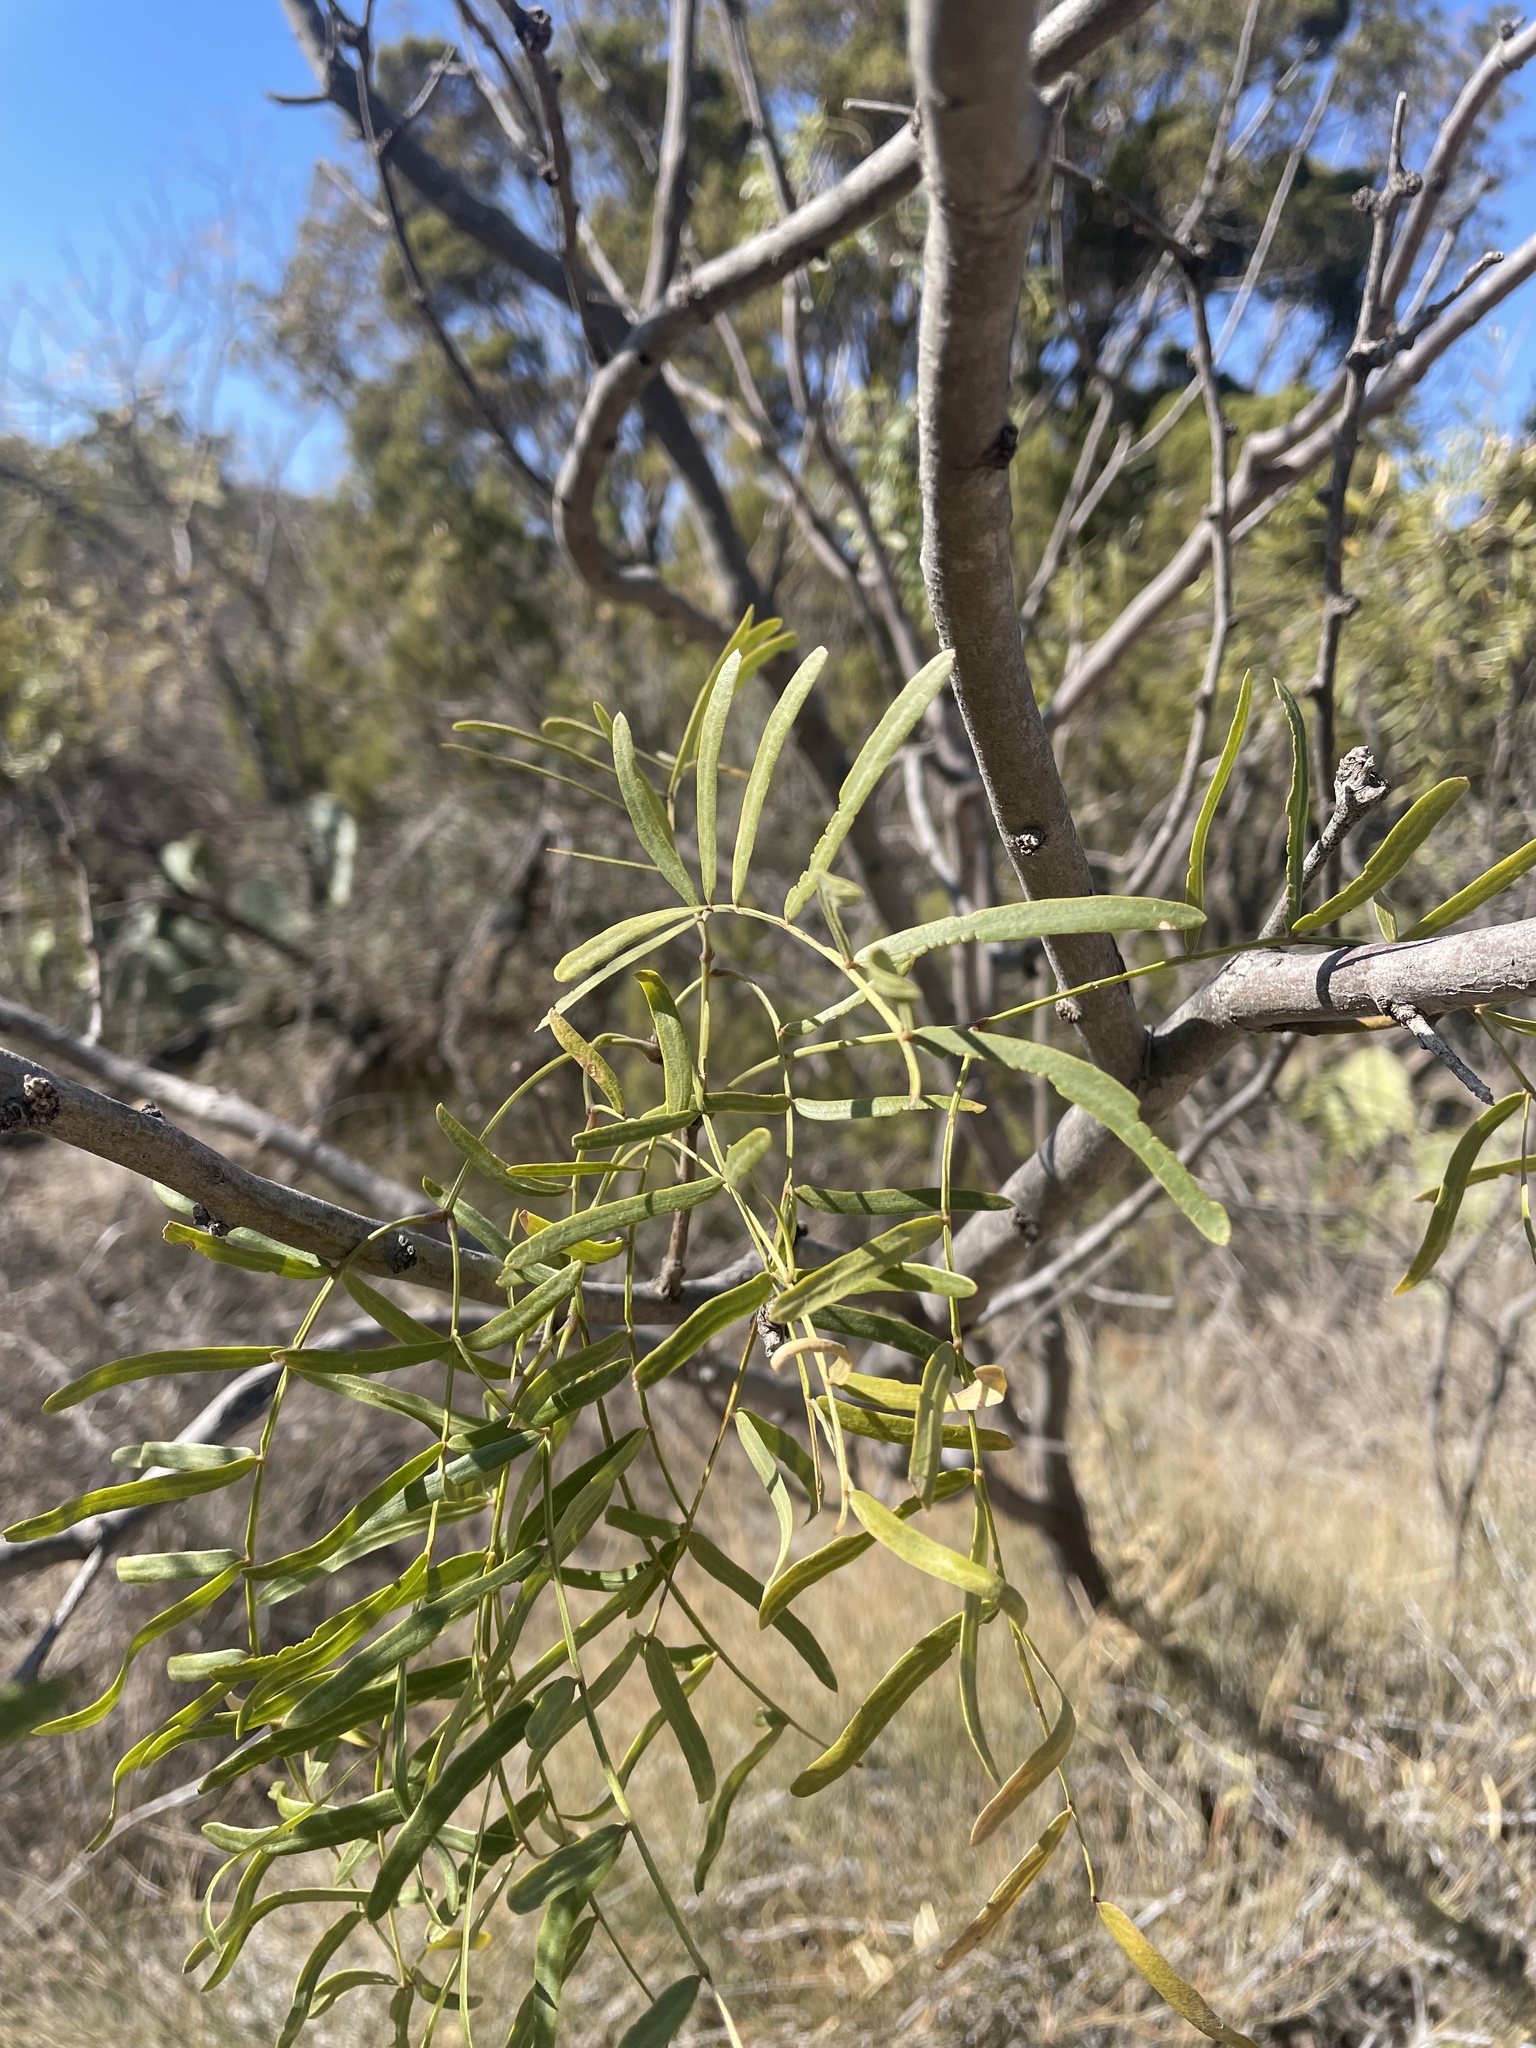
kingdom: Plantae
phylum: Tracheophyta
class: Magnoliopsida
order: Fabales
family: Fabaceae
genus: Prosopis
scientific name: Prosopis glandulosa
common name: Honey mesquite
